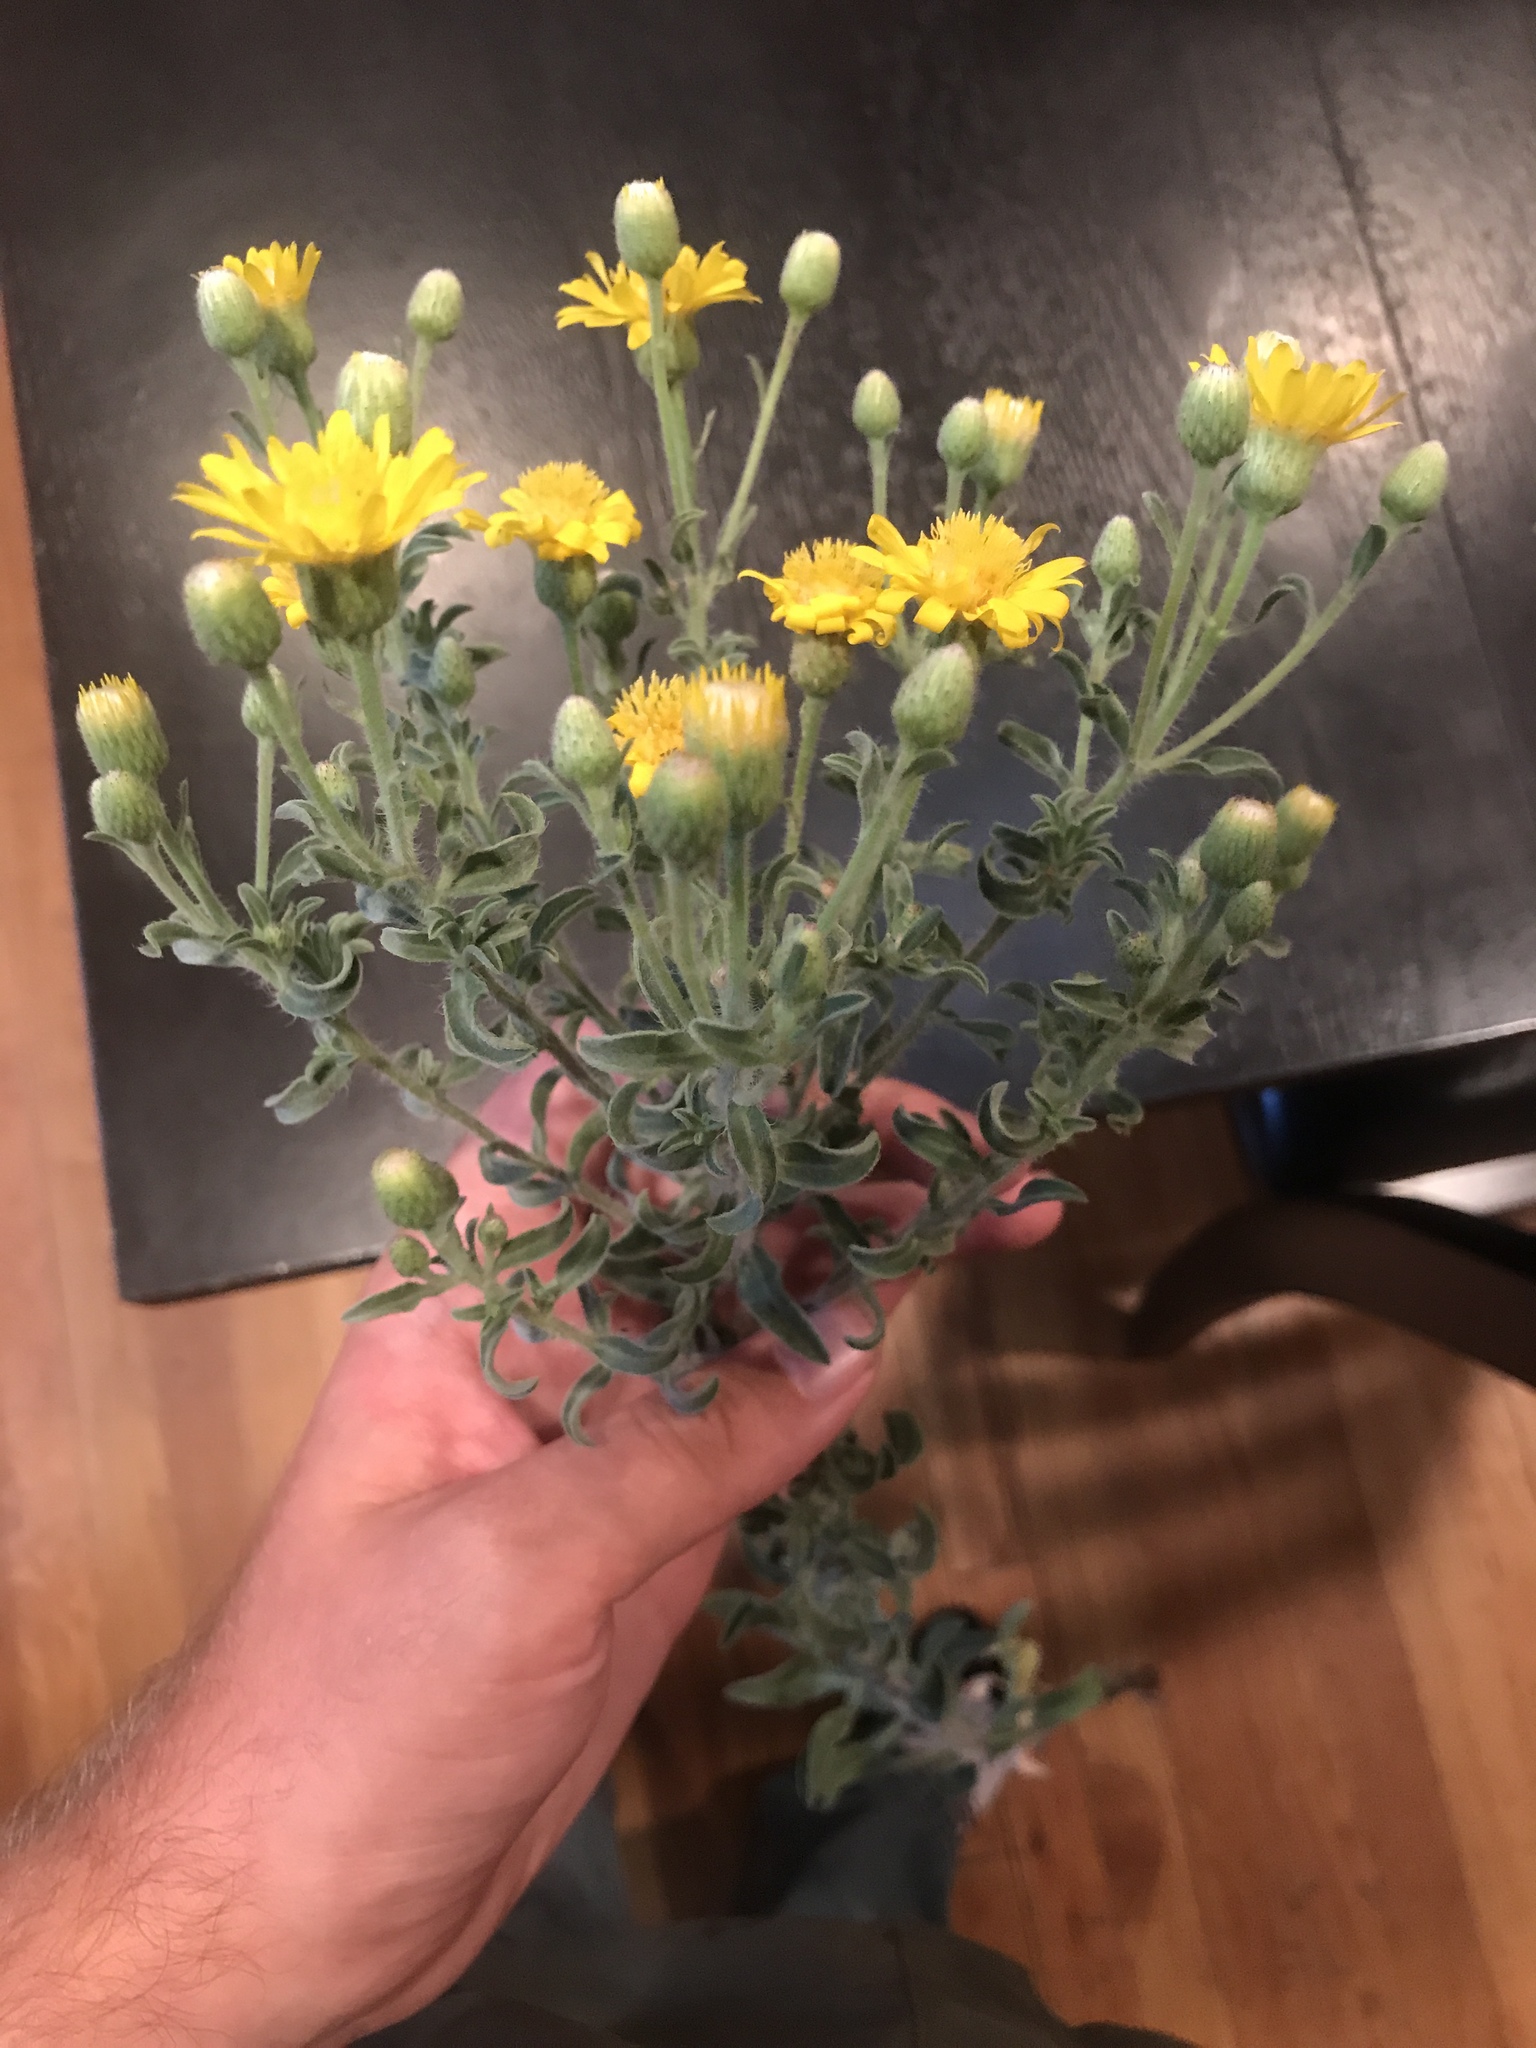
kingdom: Plantae
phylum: Tracheophyta
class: Magnoliopsida
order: Asterales
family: Asteraceae
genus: Heterotheca
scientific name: Heterotheca zionensis
